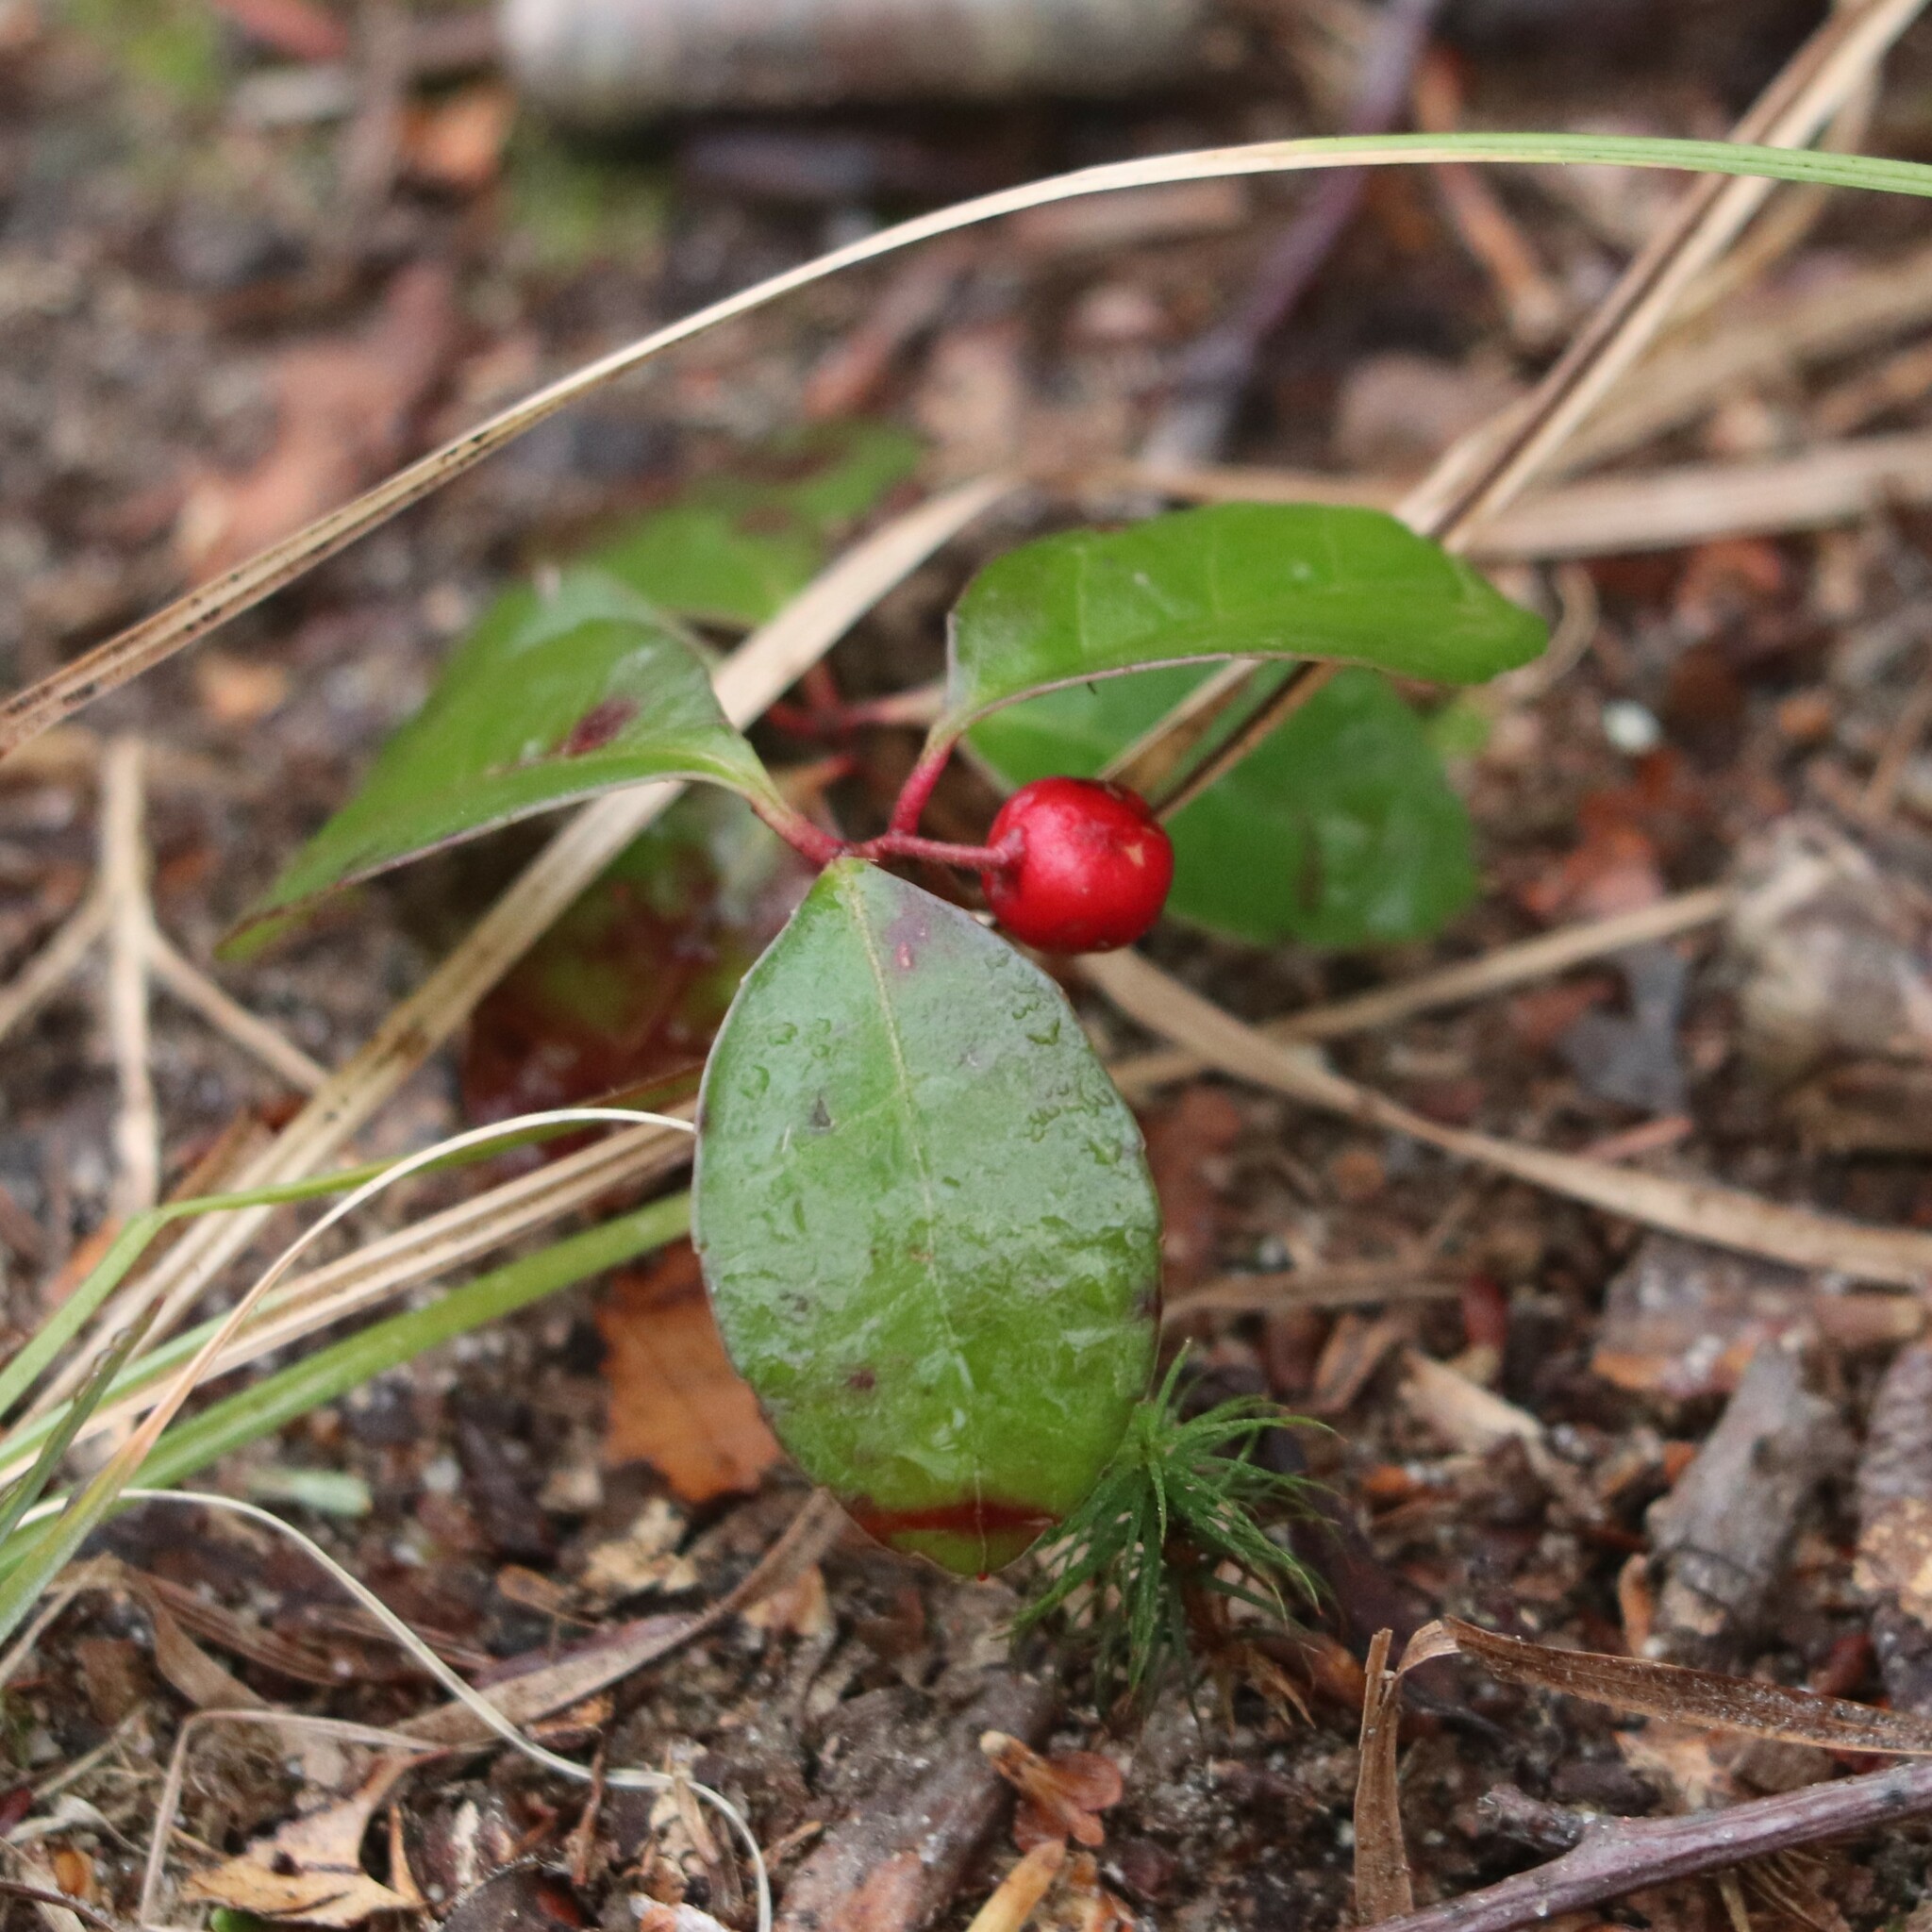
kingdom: Plantae
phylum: Tracheophyta
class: Magnoliopsida
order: Ericales
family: Ericaceae
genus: Gaultheria
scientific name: Gaultheria procumbens
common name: Checkerberry
